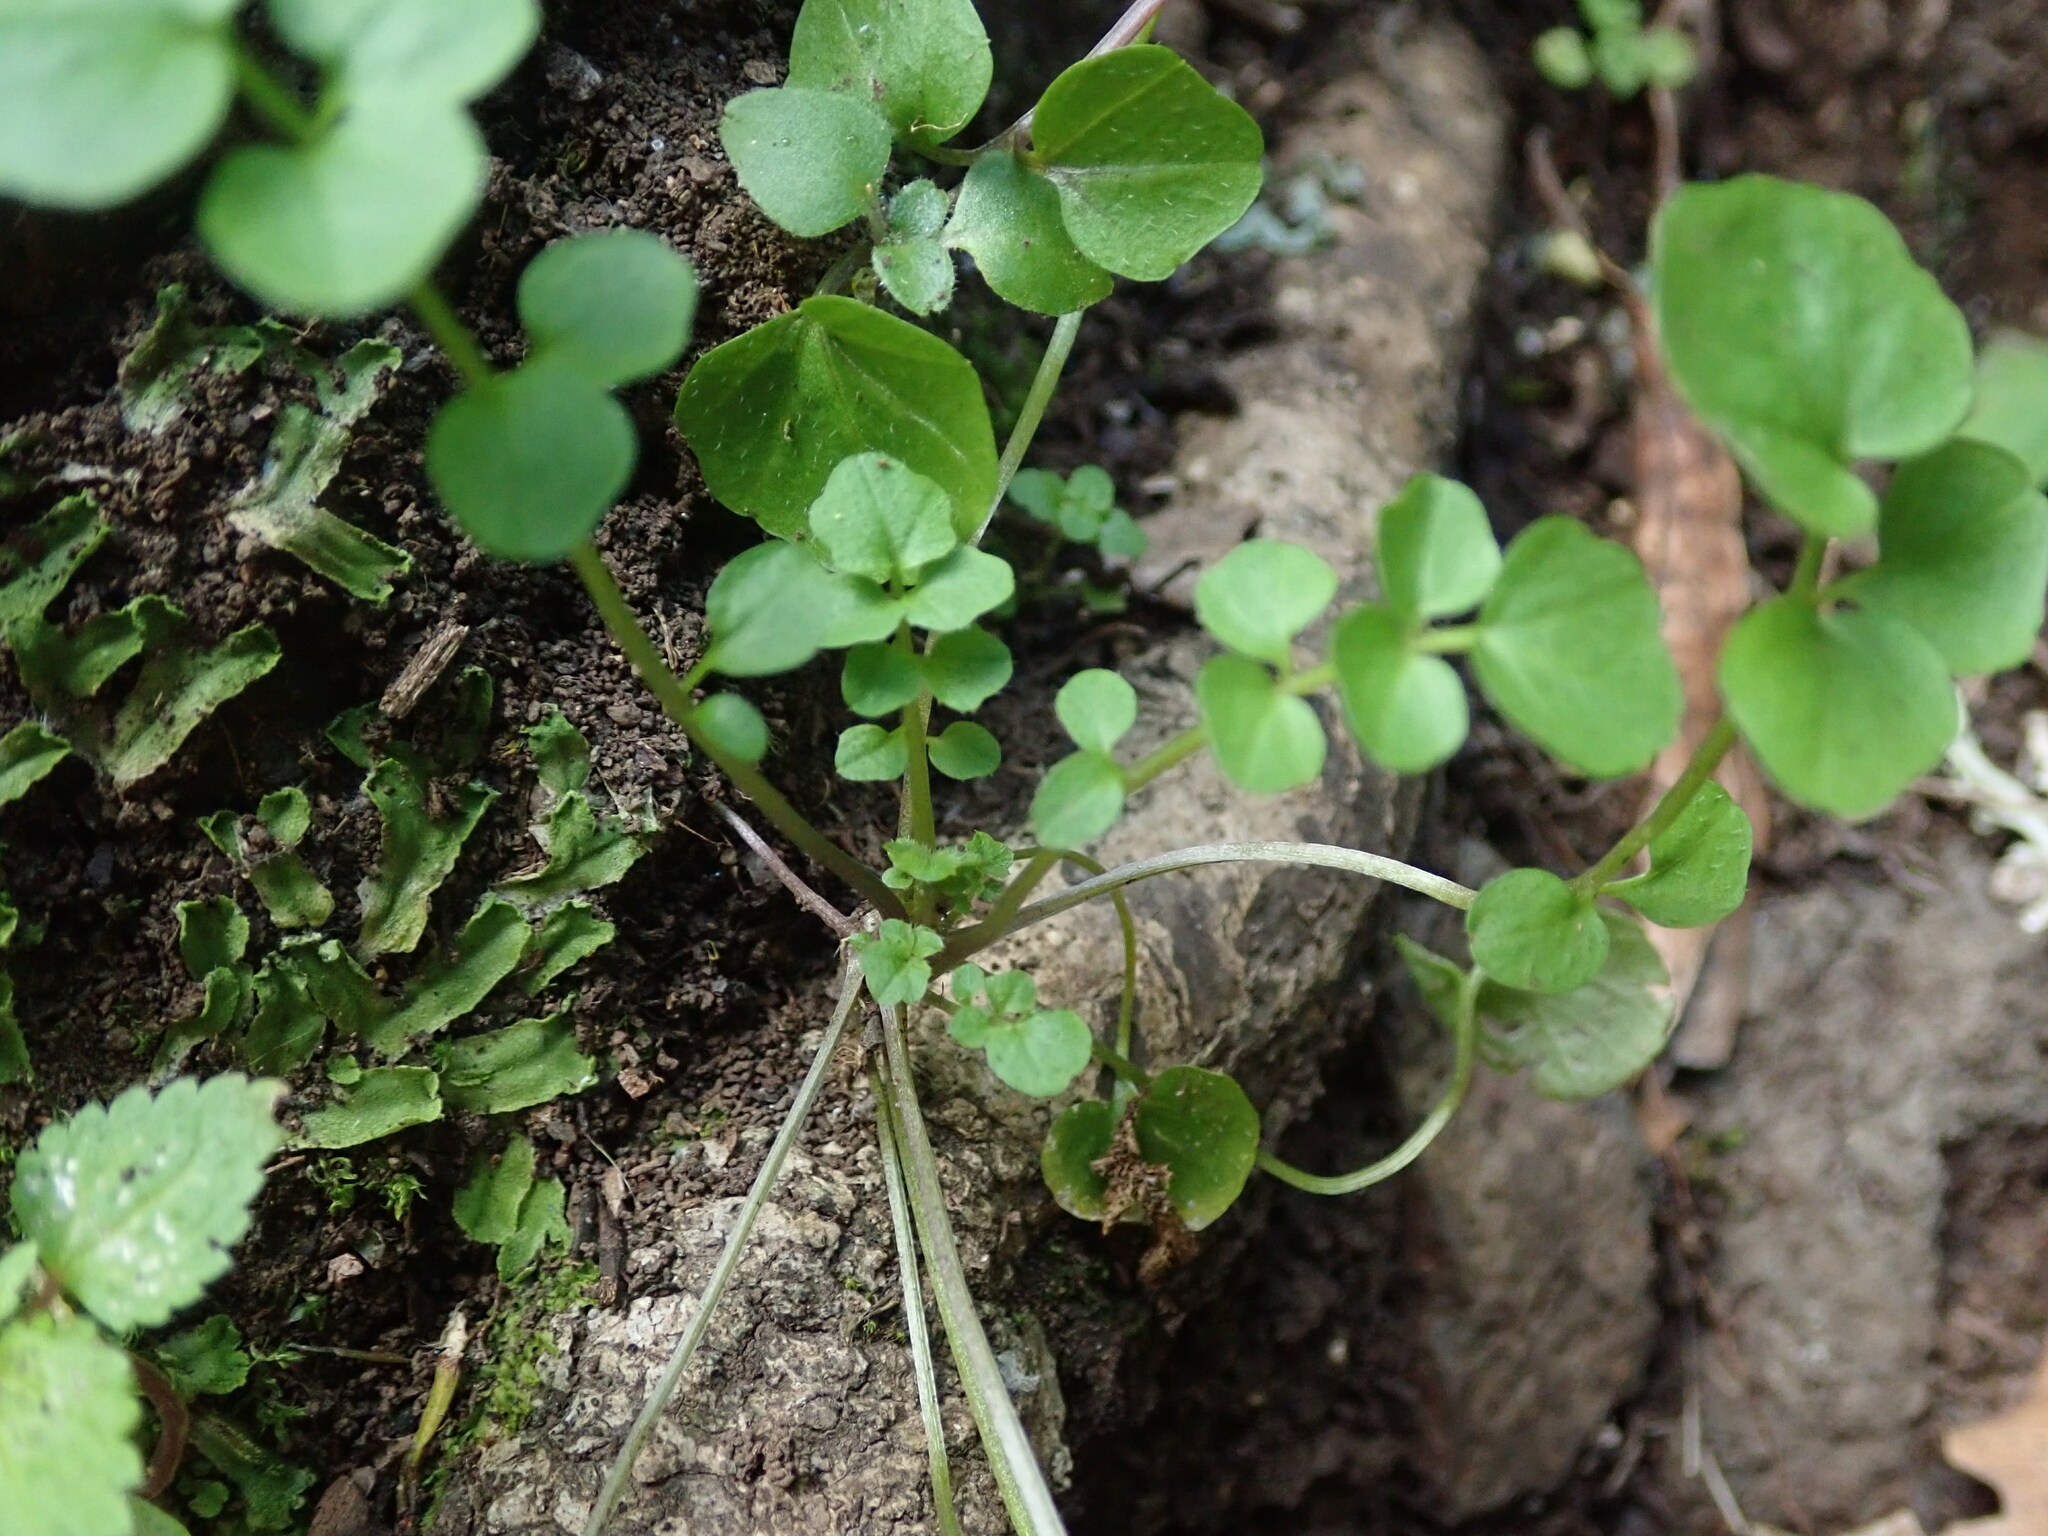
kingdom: Plantae
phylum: Tracheophyta
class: Magnoliopsida
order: Brassicales
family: Brassicaceae
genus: Cardamine
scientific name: Cardamine hirsuta
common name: Hairy bittercress
